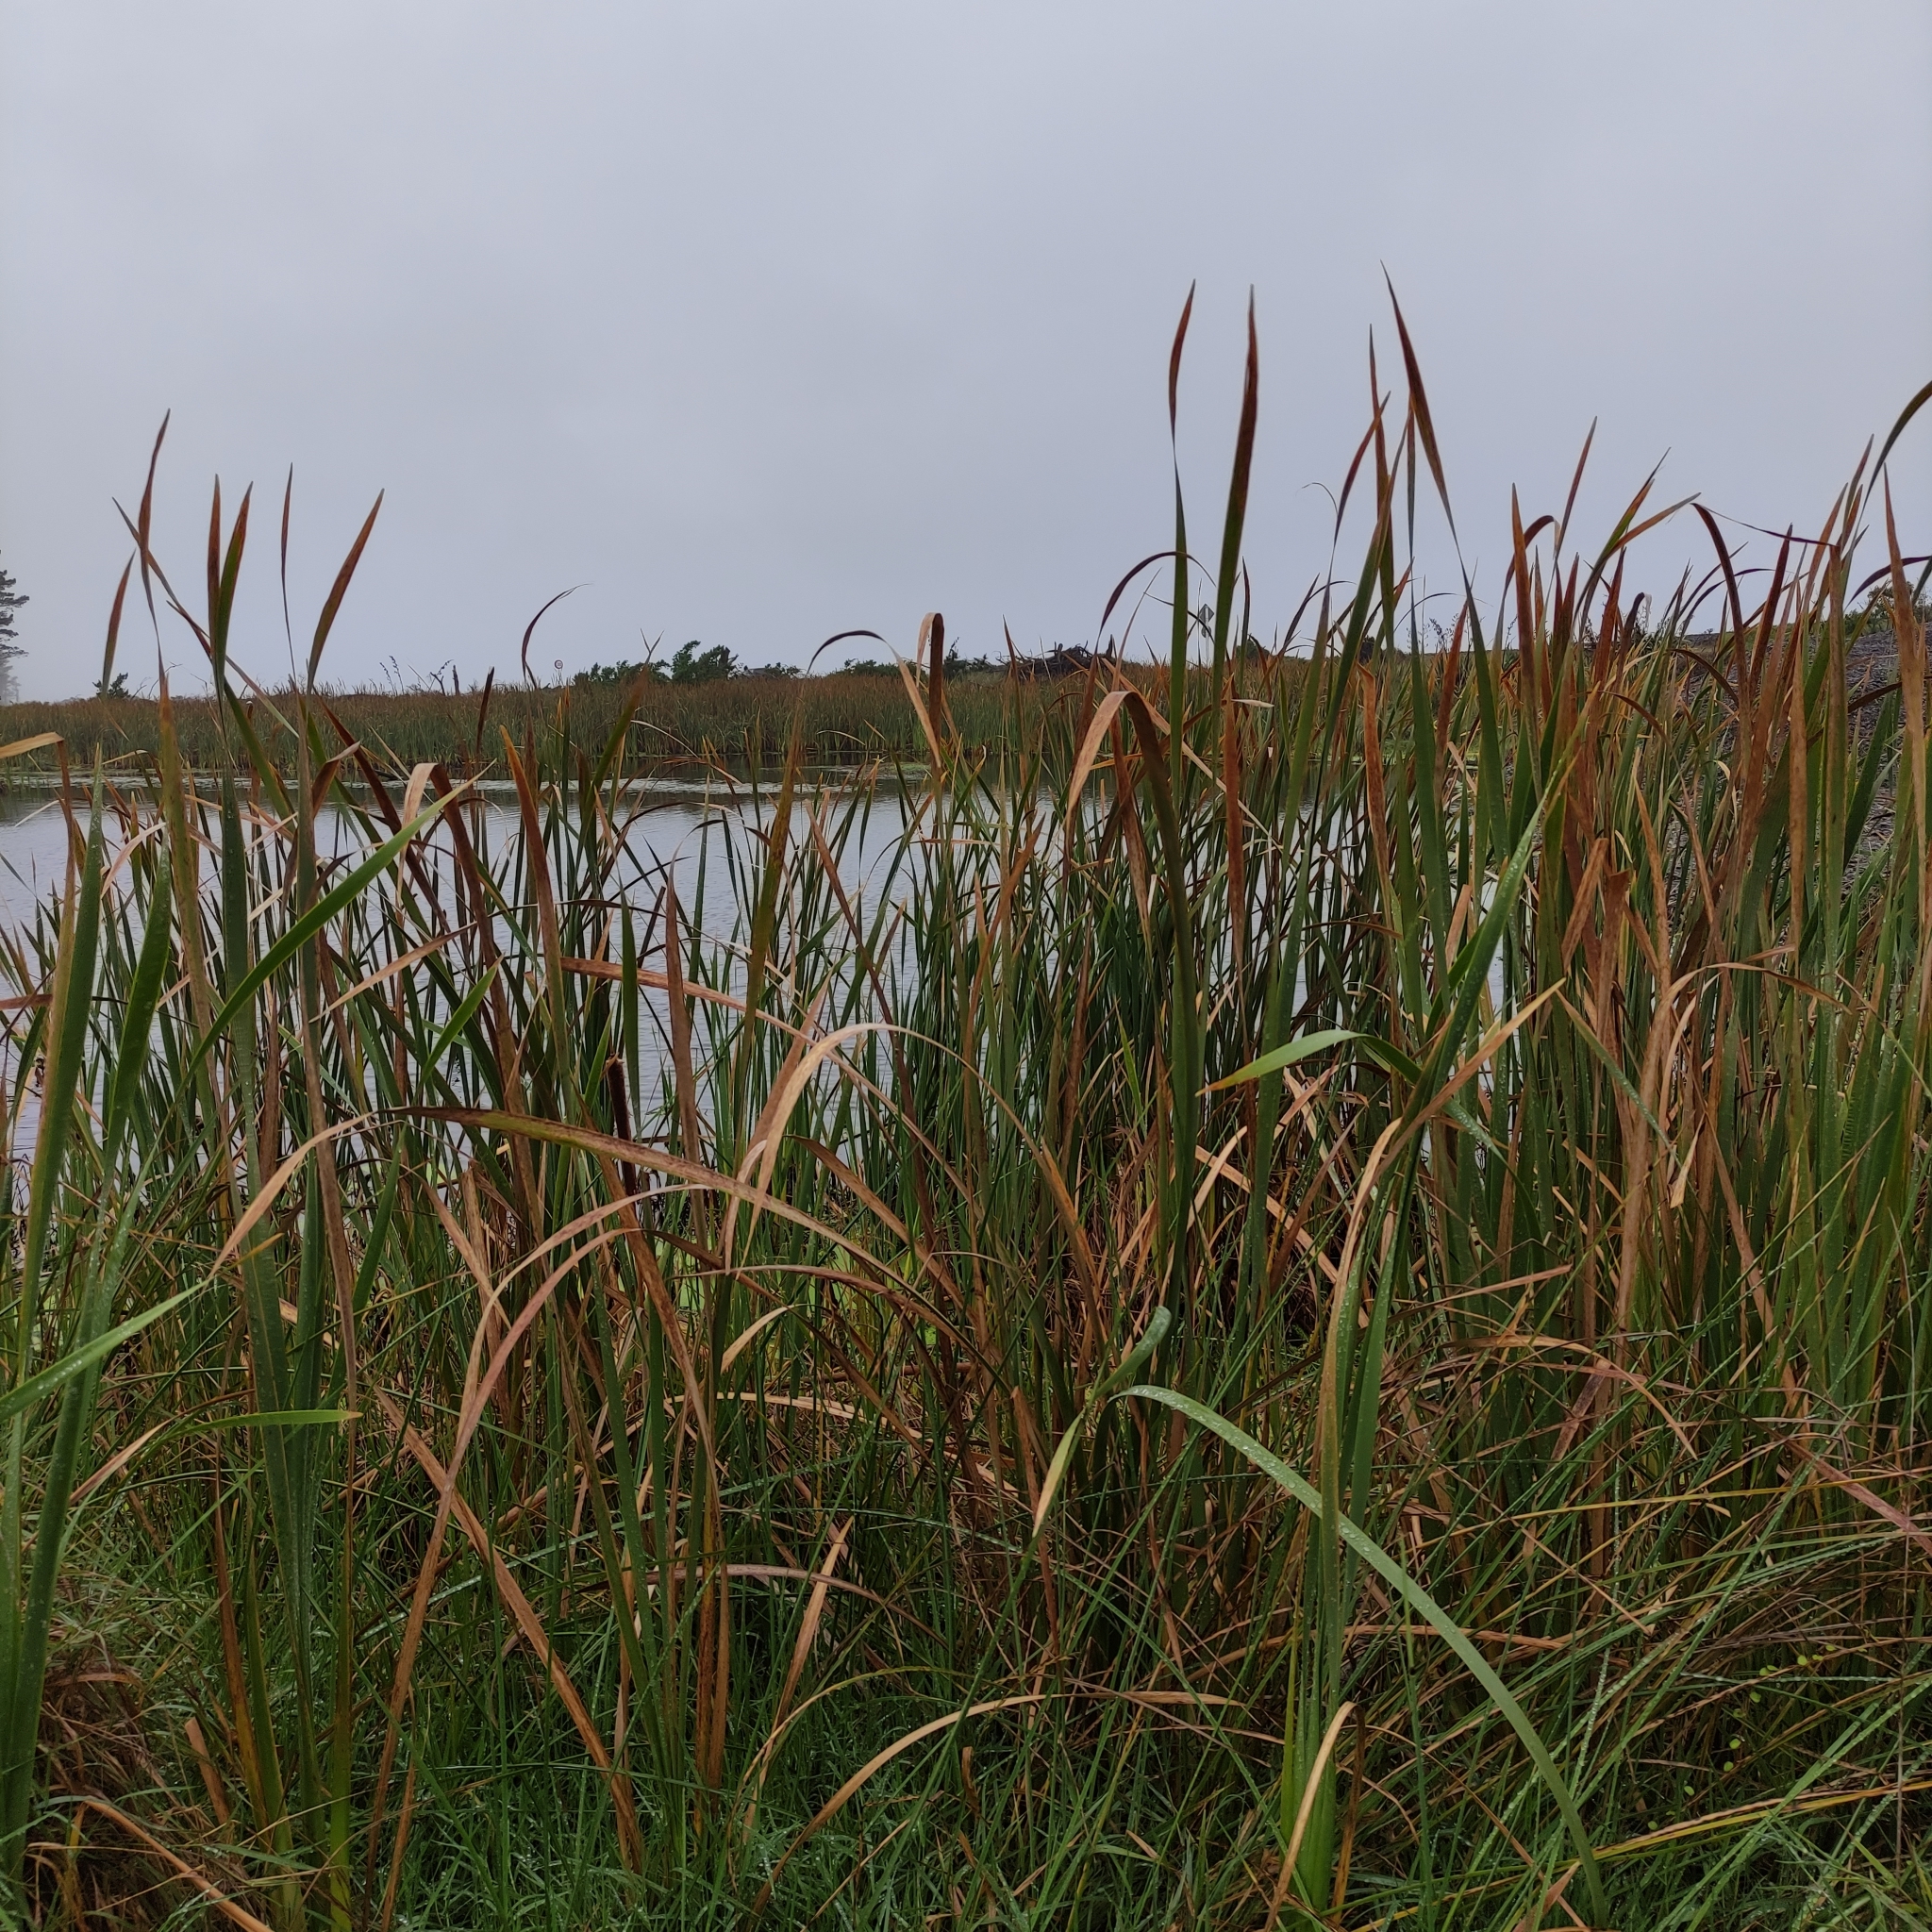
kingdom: Plantae
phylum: Tracheophyta
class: Liliopsida
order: Poales
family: Typhaceae
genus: Typha
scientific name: Typha orientalis
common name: Bullrush
